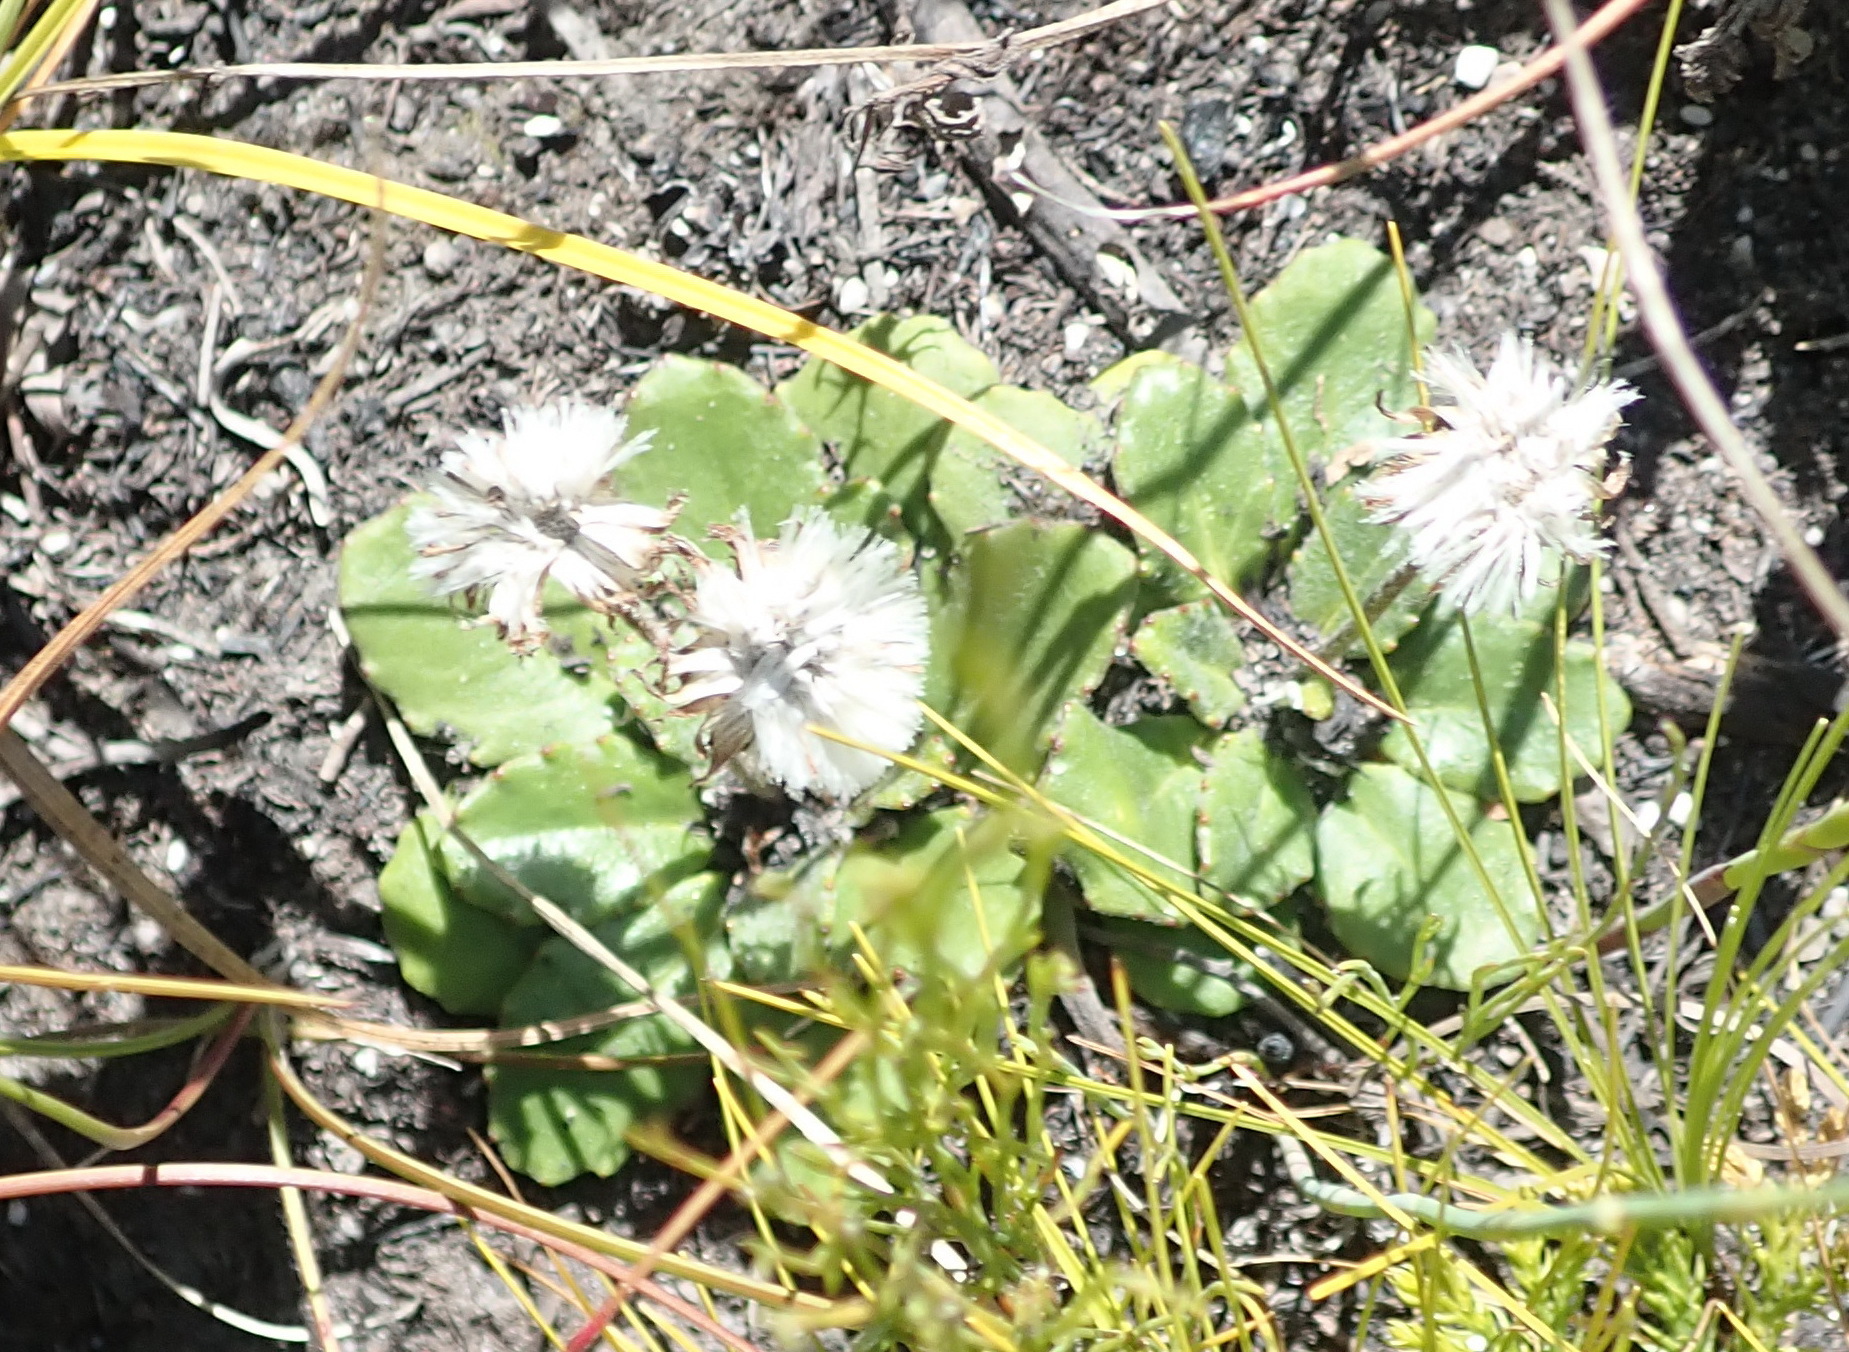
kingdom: Plantae
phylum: Tracheophyta
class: Magnoliopsida
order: Asterales
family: Asteraceae
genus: Zyrphelis
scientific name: Zyrphelis crenata
